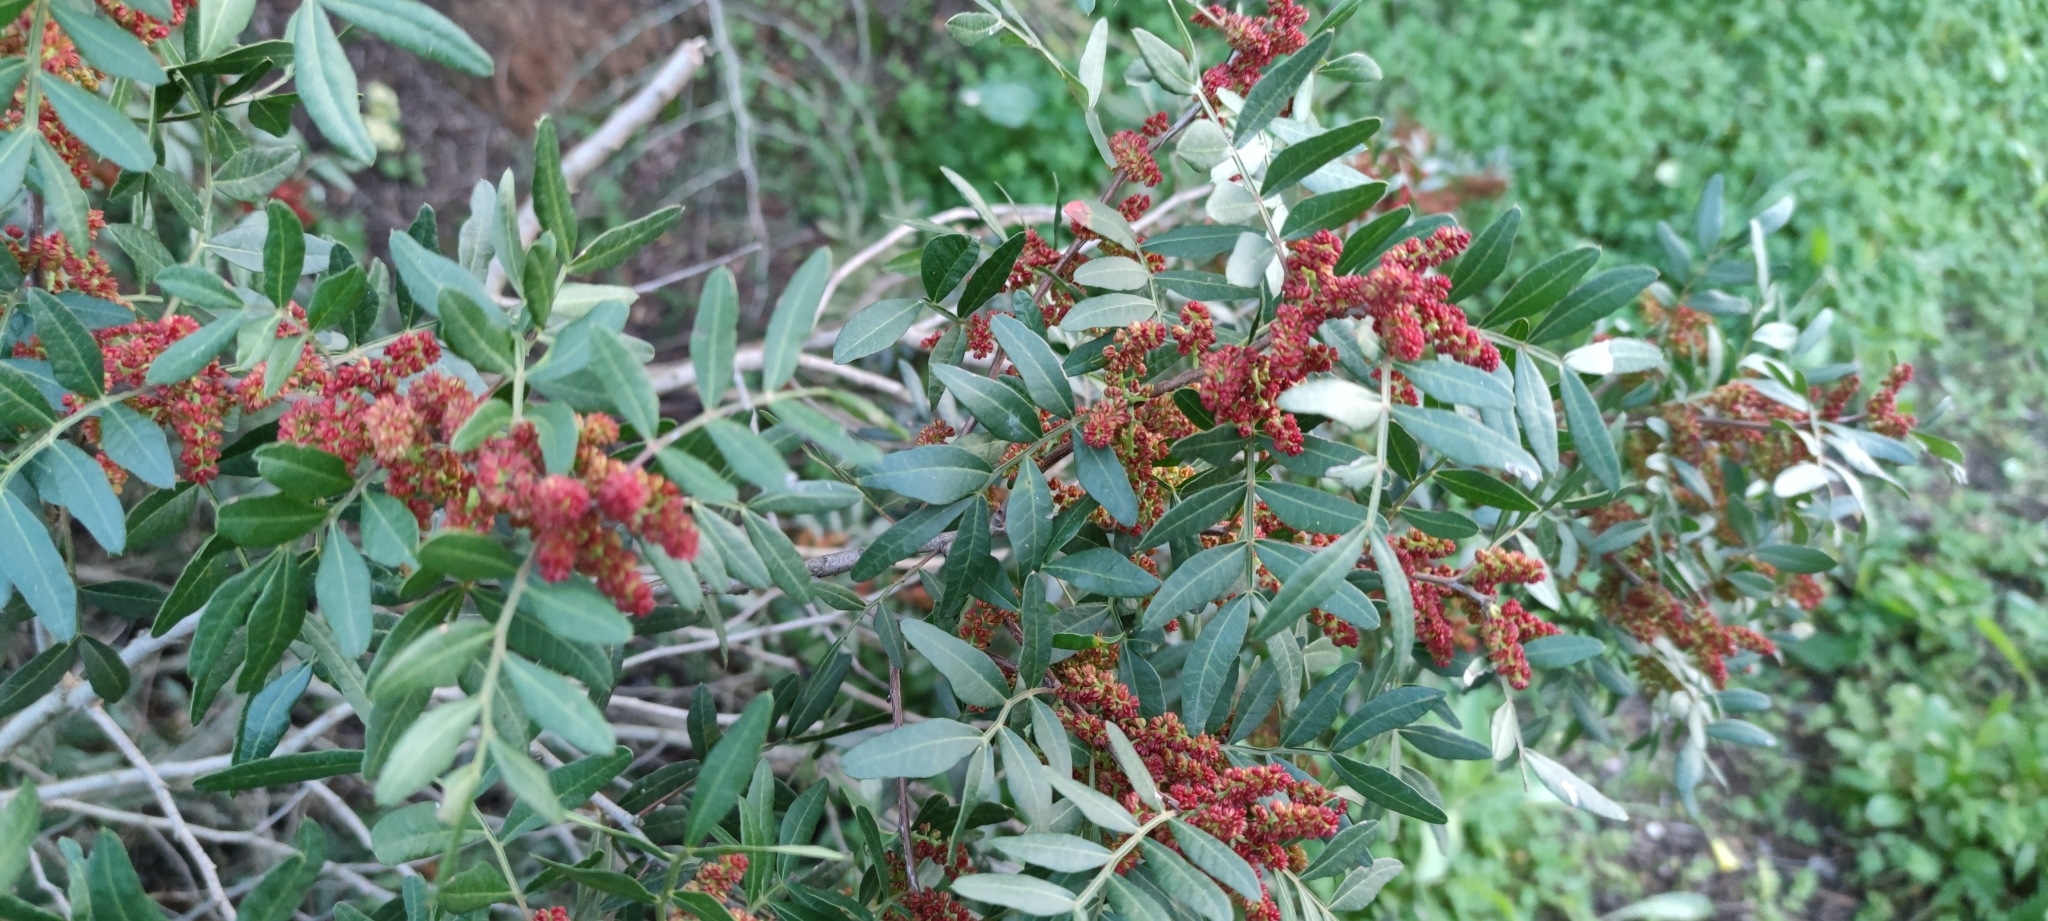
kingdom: Plantae
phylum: Tracheophyta
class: Magnoliopsida
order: Sapindales
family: Anacardiaceae
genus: Pistacia
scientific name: Pistacia lentiscus
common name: Lentisk
